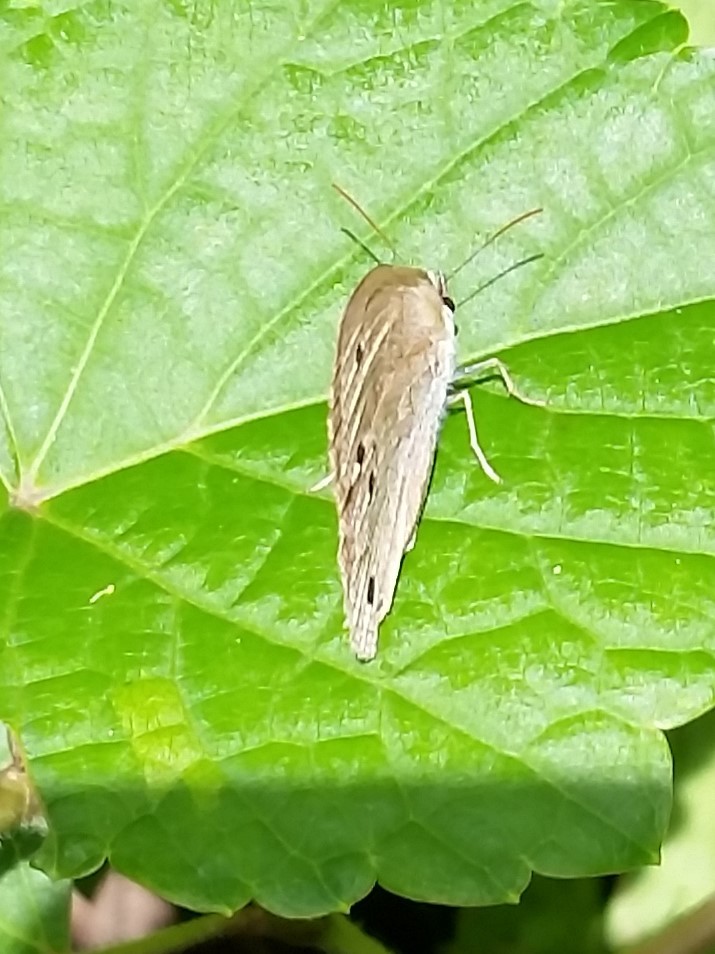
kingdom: Animalia
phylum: Arthropoda
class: Insecta
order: Lepidoptera
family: Nymphalidae
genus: Euptychia
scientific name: Euptychia cymela
